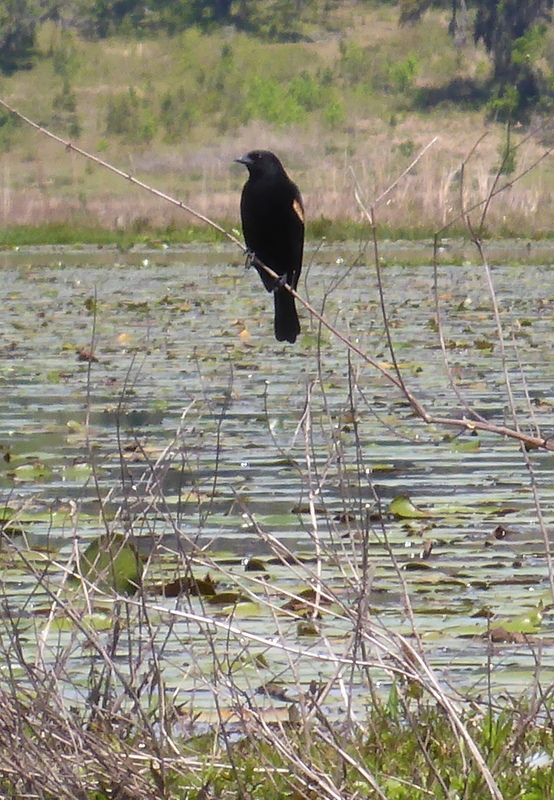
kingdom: Animalia
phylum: Chordata
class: Aves
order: Passeriformes
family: Icteridae
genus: Agelaius
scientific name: Agelaius phoeniceus
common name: Red-winged blackbird
